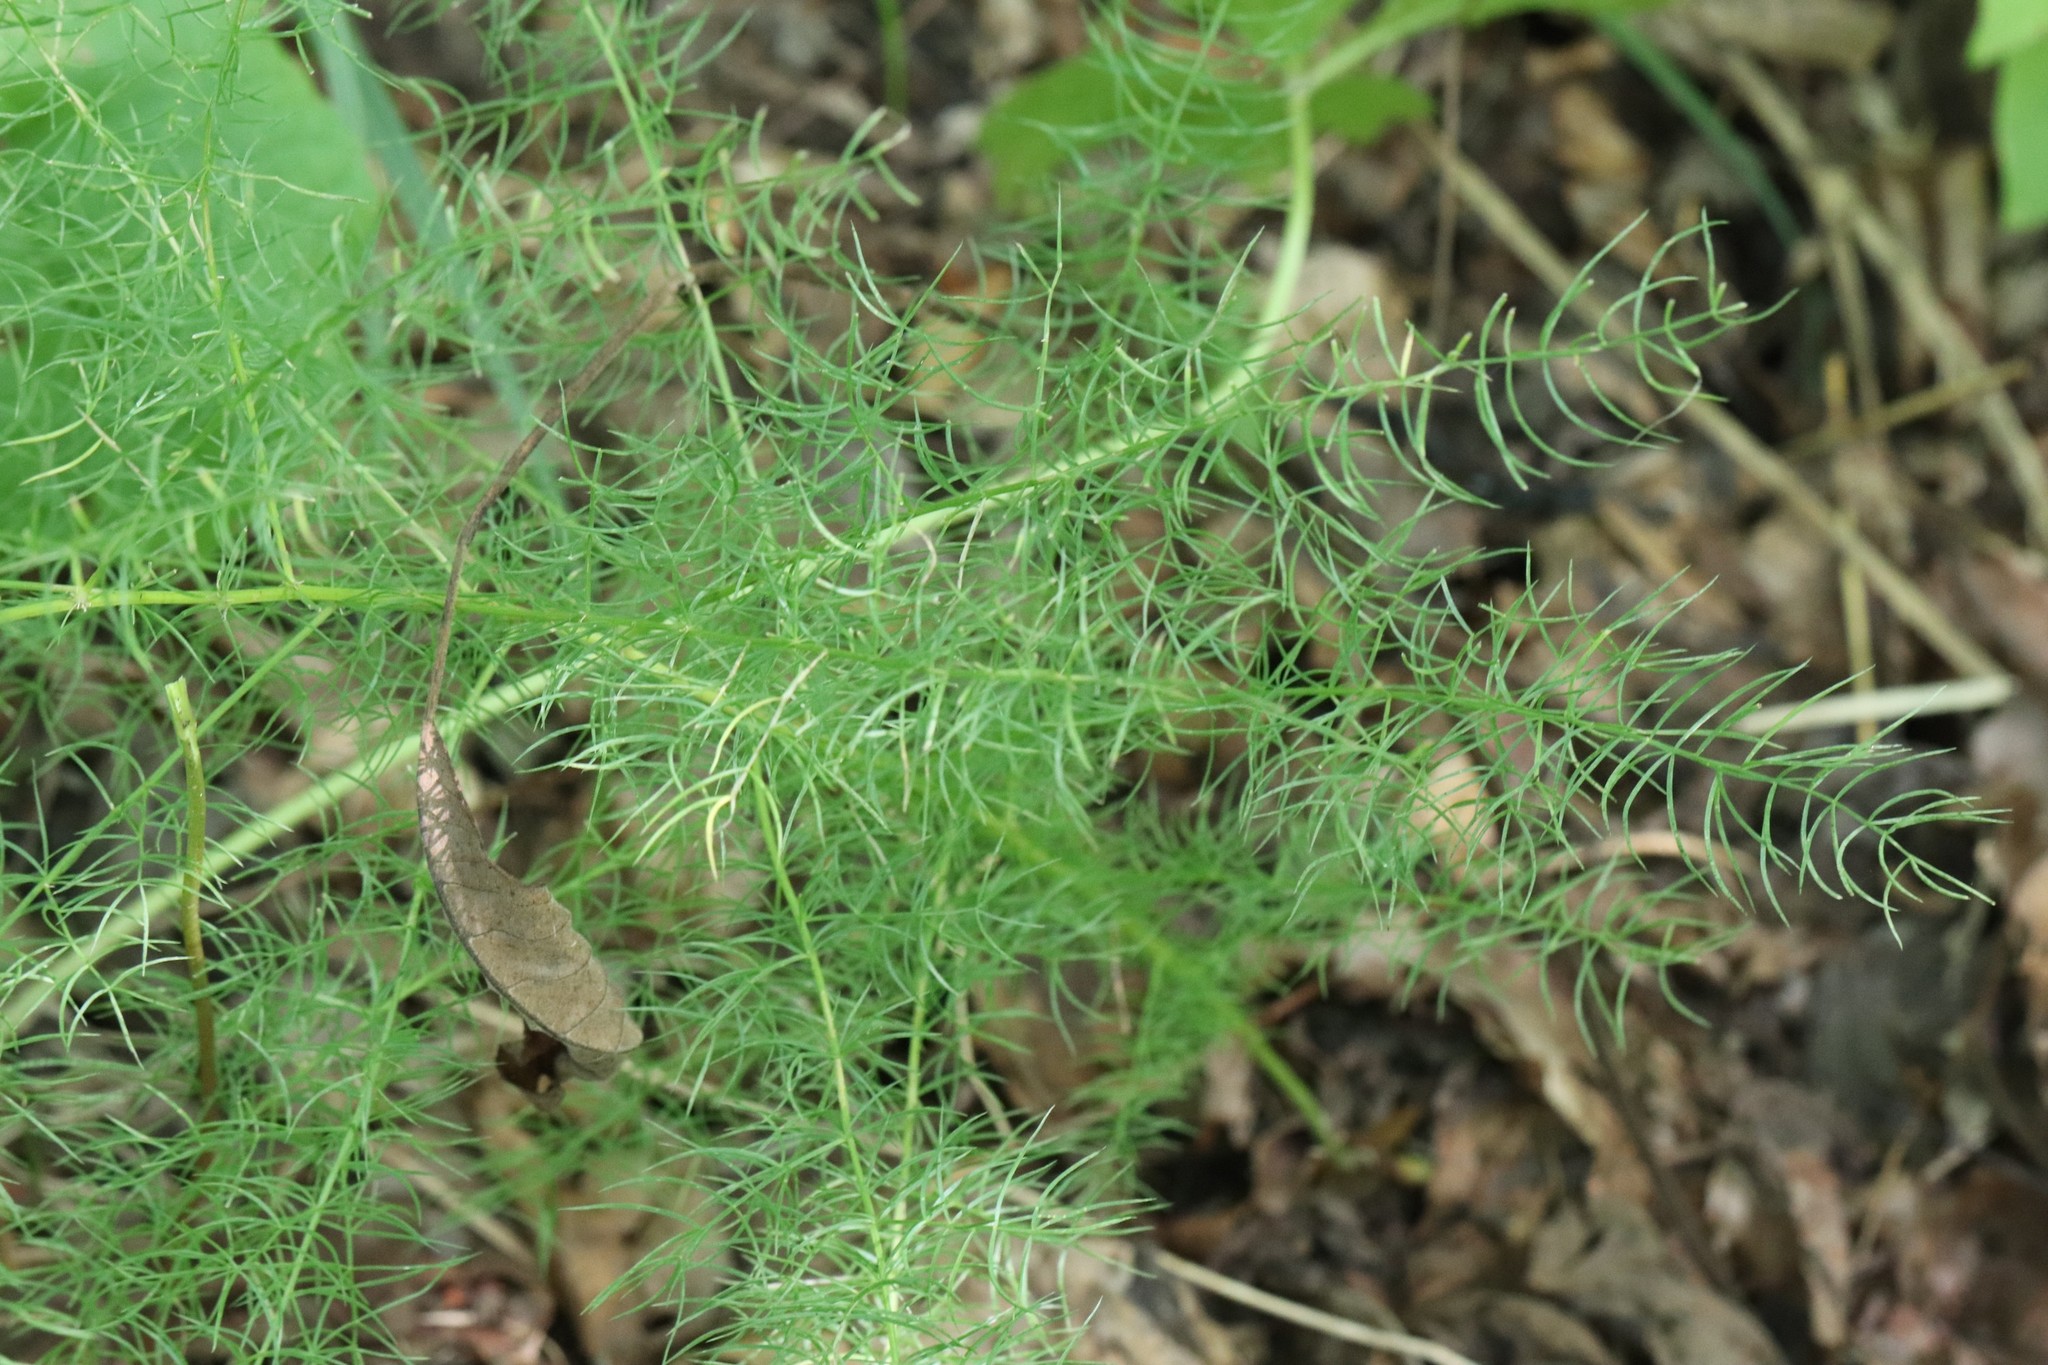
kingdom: Plantae
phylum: Tracheophyta
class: Liliopsida
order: Asparagales
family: Asparagaceae
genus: Asparagus
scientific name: Asparagus schoberioides
